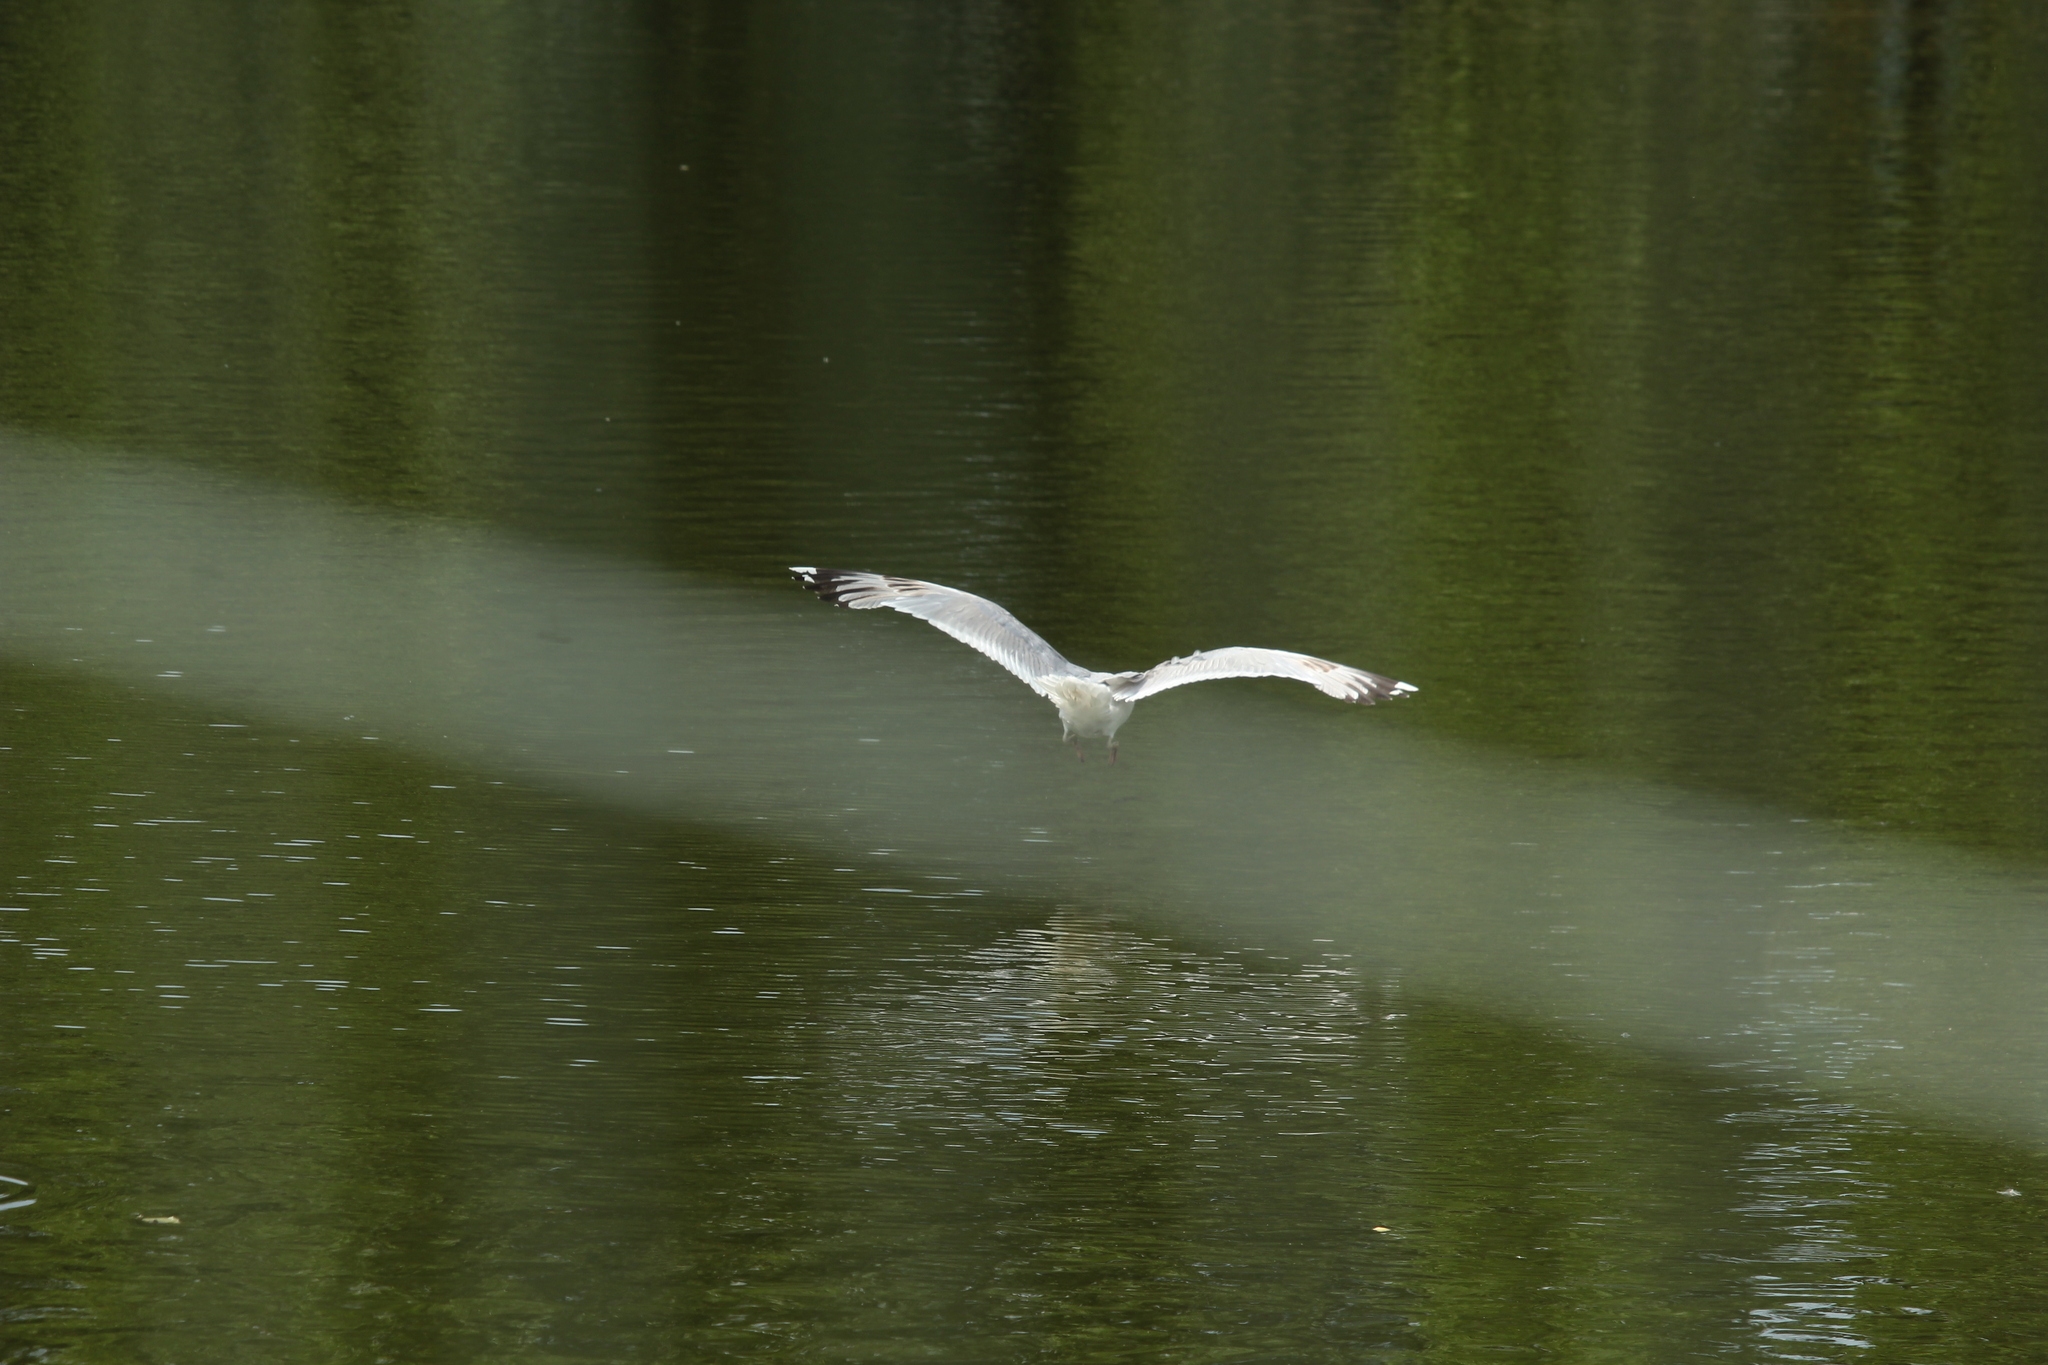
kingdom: Animalia
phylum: Chordata
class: Aves
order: Charadriiformes
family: Laridae
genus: Larus
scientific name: Larus argentatus
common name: Herring gull
